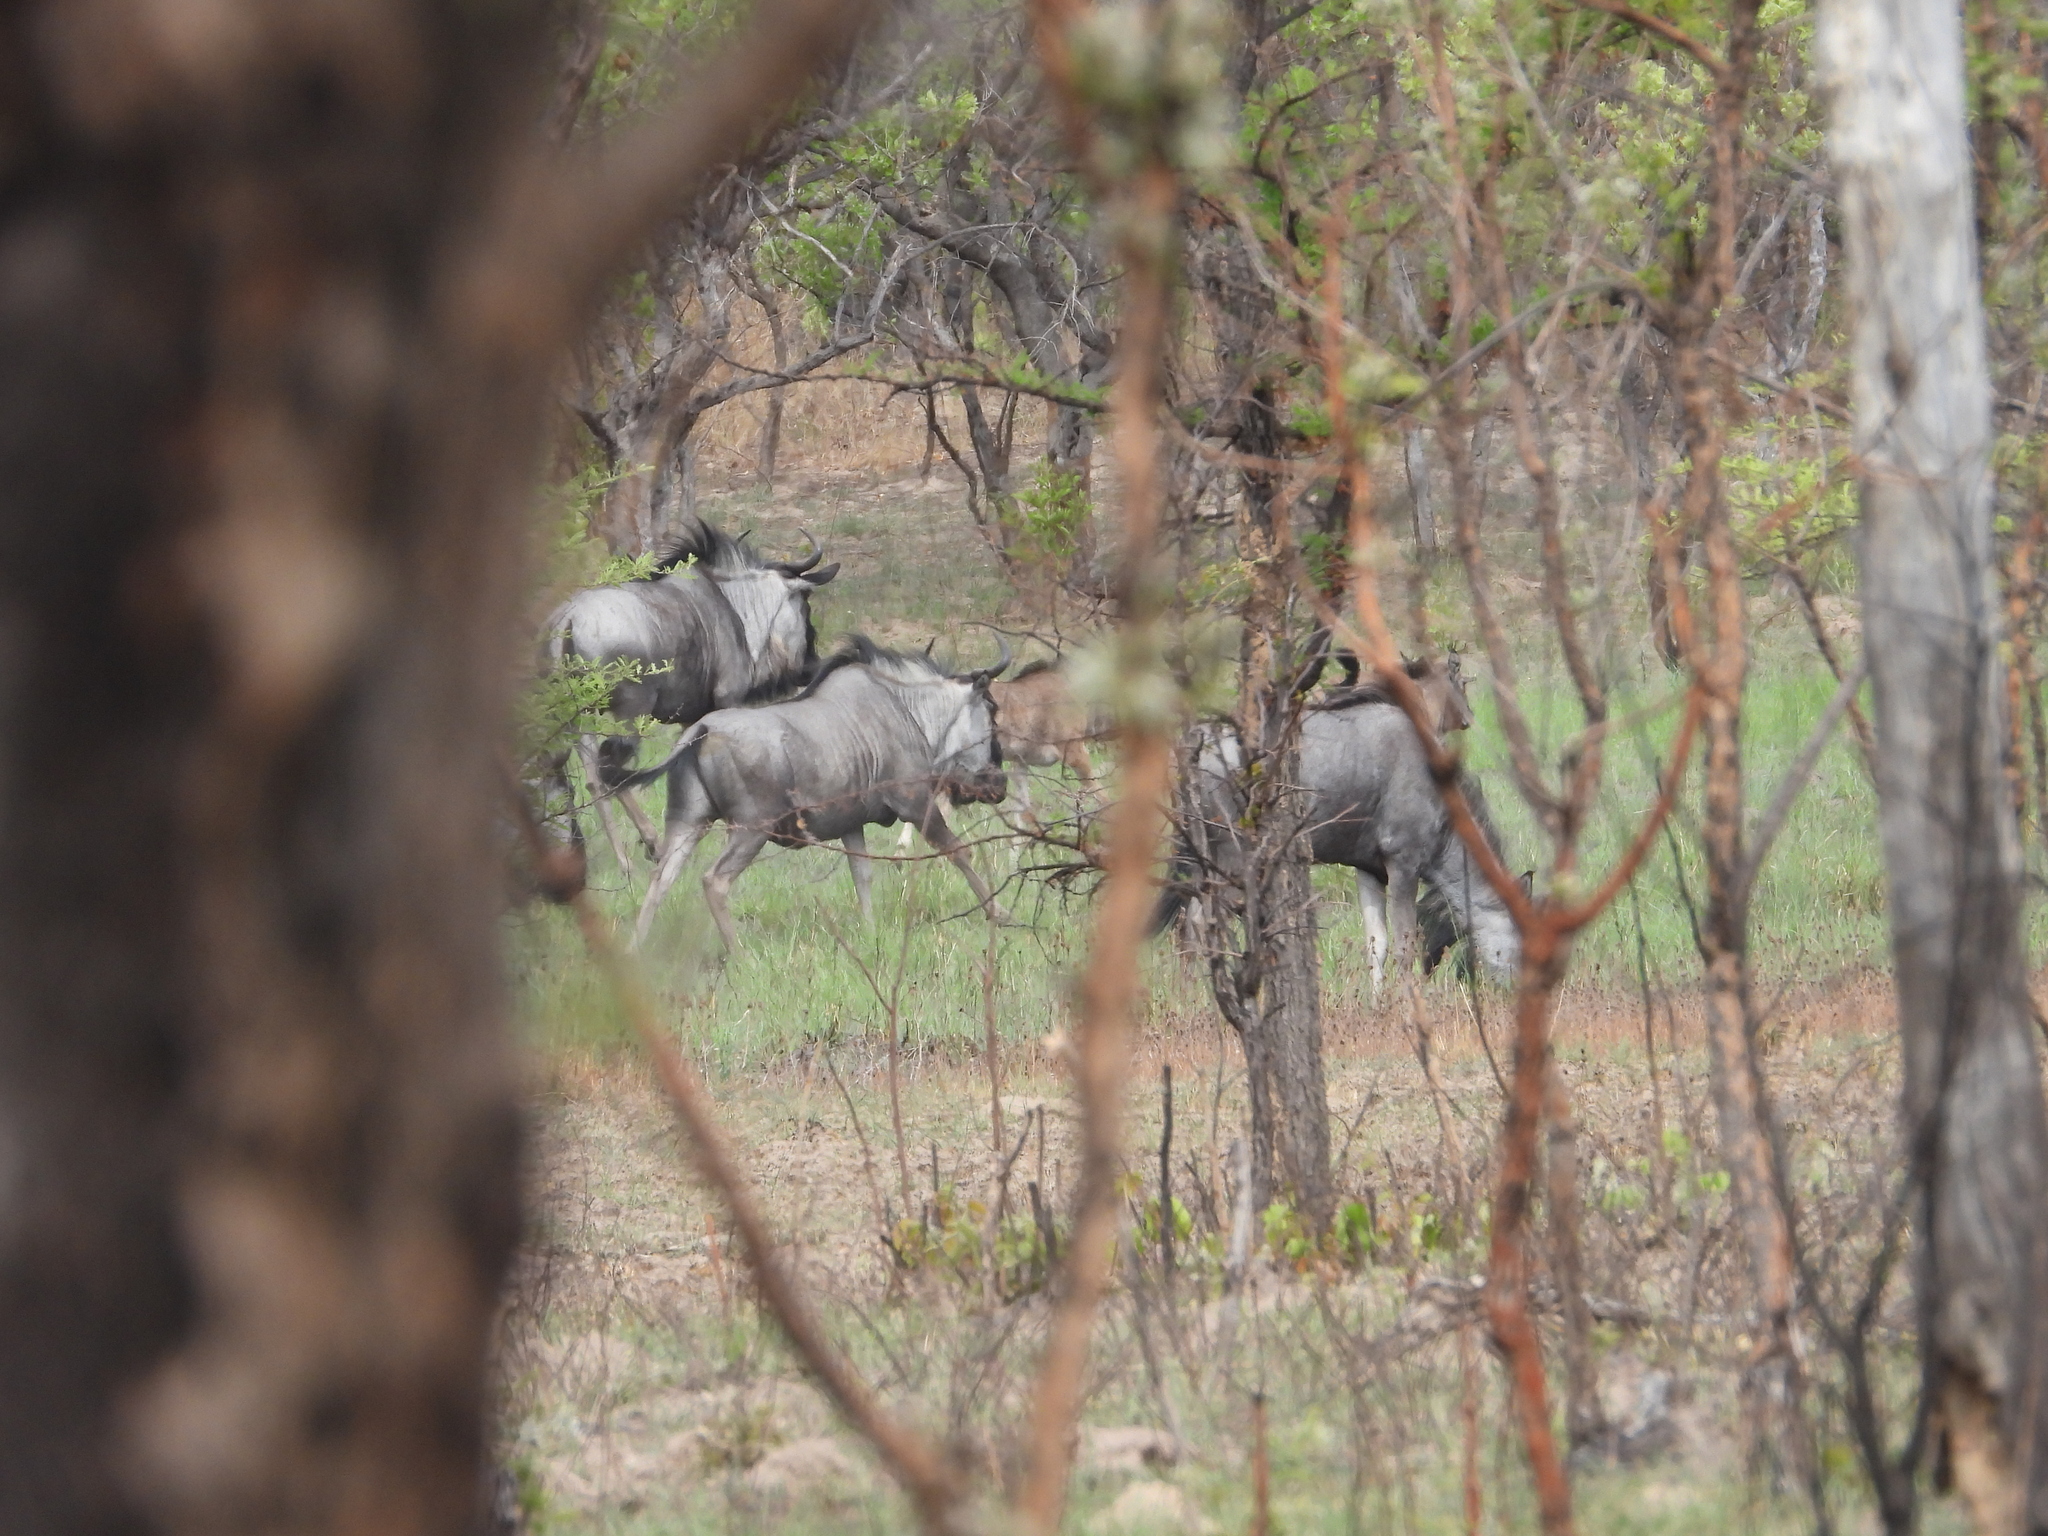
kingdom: Animalia
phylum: Chordata
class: Mammalia
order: Artiodactyla
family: Bovidae
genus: Connochaetes
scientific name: Connochaetes taurinus
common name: Blue wildebeest
